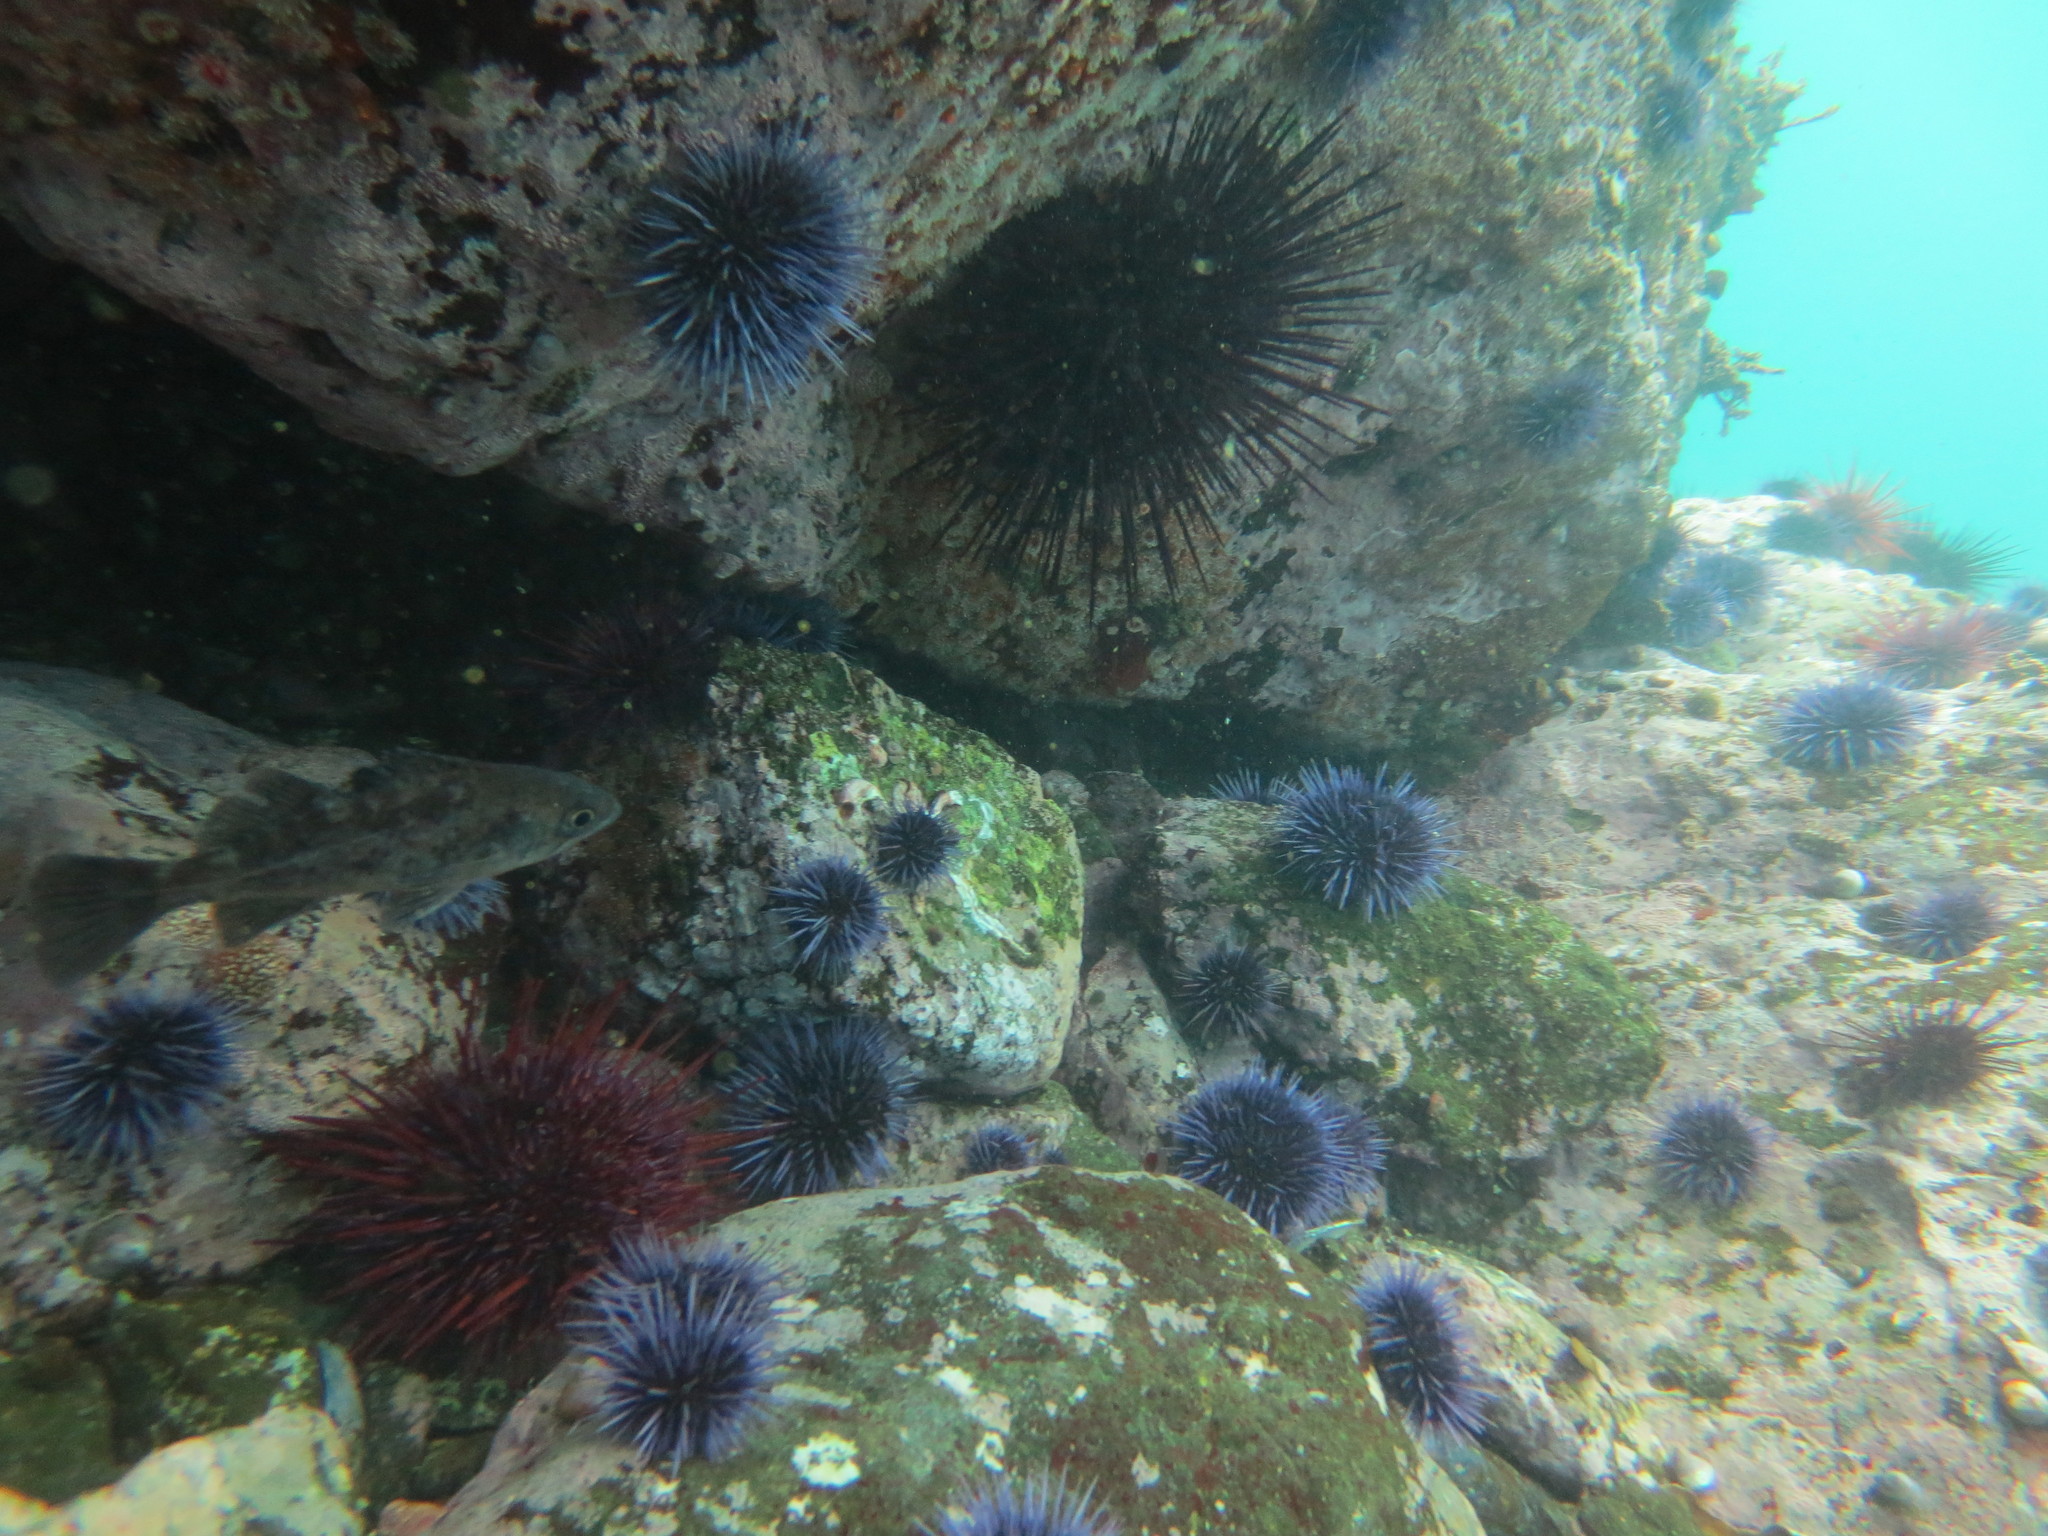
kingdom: Animalia
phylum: Chordata
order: Scorpaeniformes
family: Sebastidae
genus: Sebastes
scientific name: Sebastes mystinus
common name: Blue rockfish
